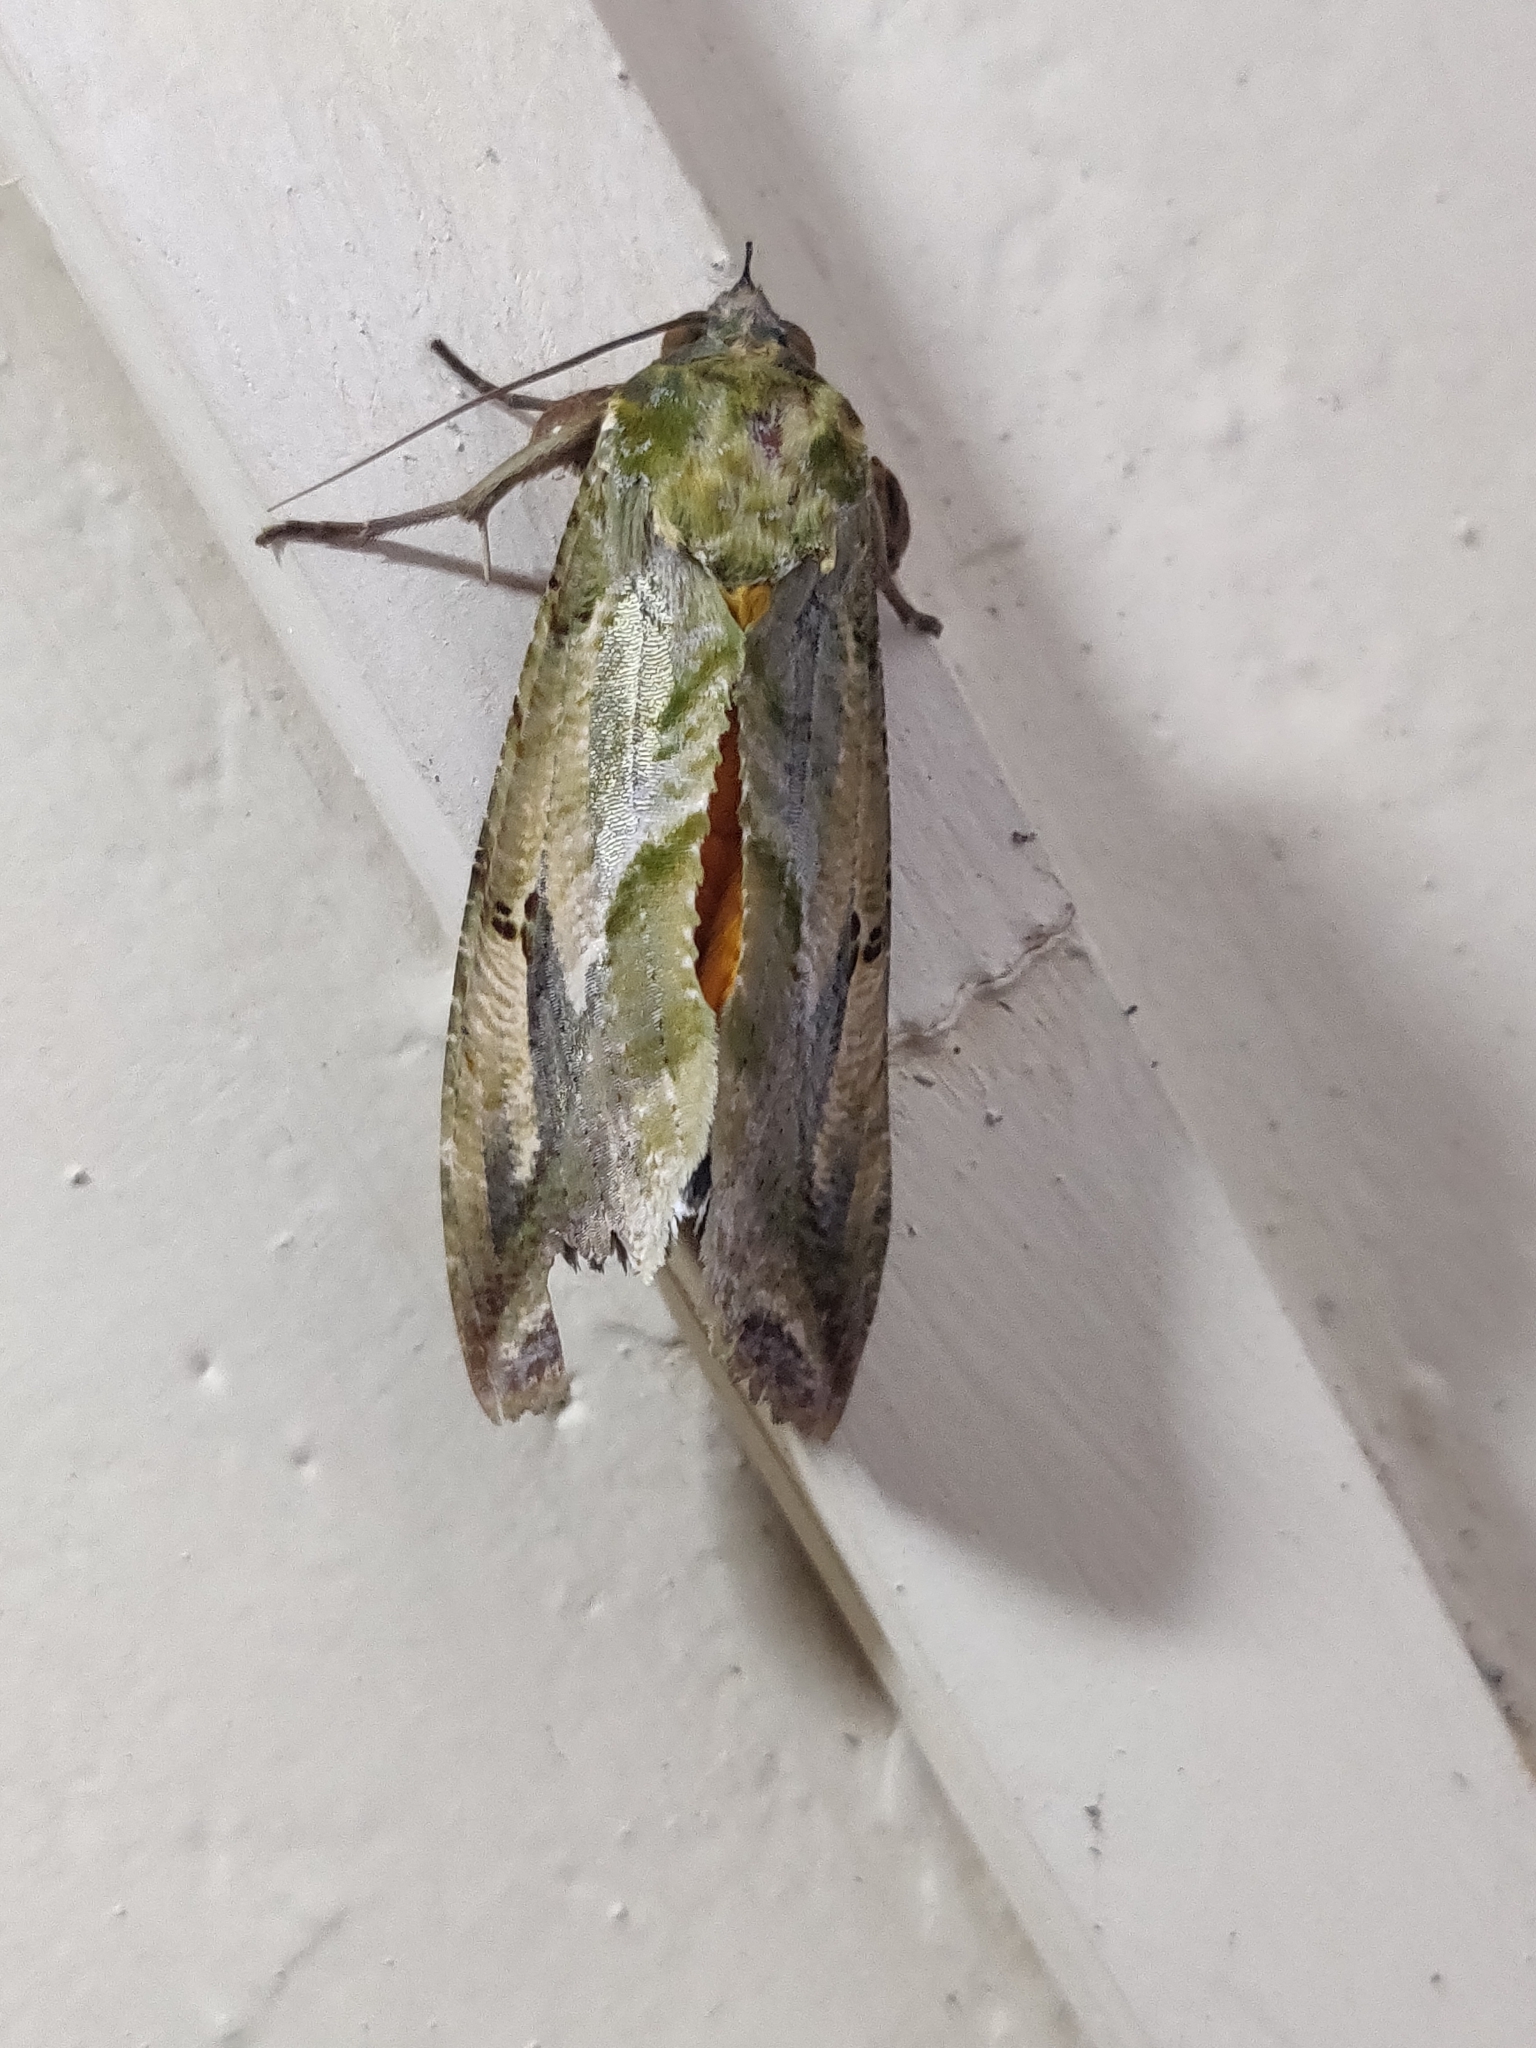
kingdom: Animalia
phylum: Arthropoda
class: Insecta
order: Lepidoptera
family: Erebidae
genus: Eudocima
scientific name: Eudocima materna
